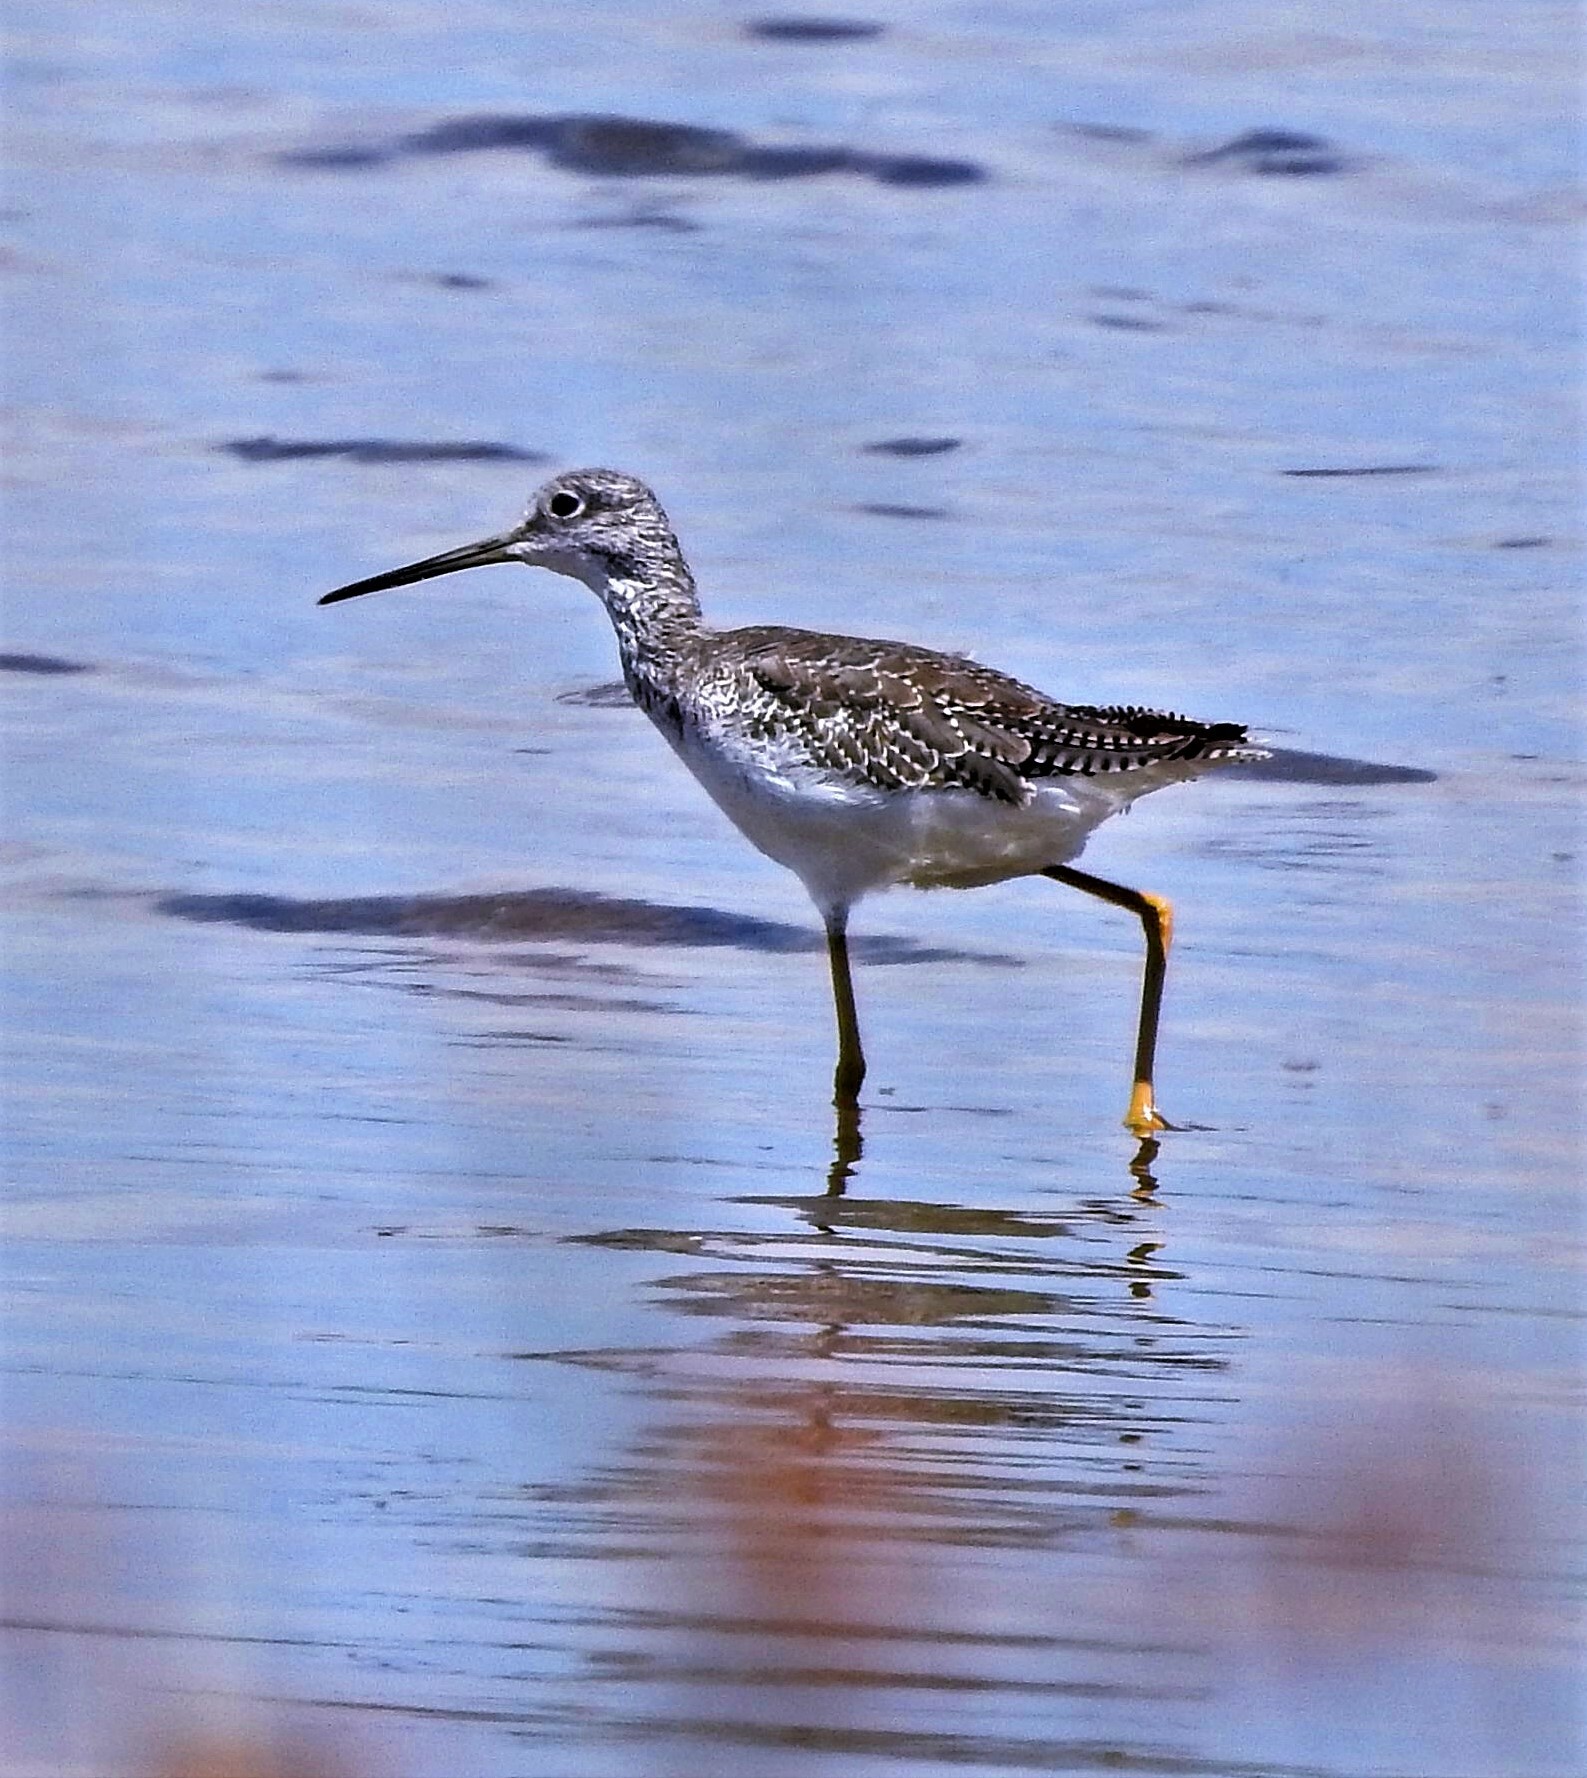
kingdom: Animalia
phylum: Chordata
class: Aves
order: Charadriiformes
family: Scolopacidae
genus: Tringa
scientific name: Tringa melanoleuca
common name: Greater yellowlegs
